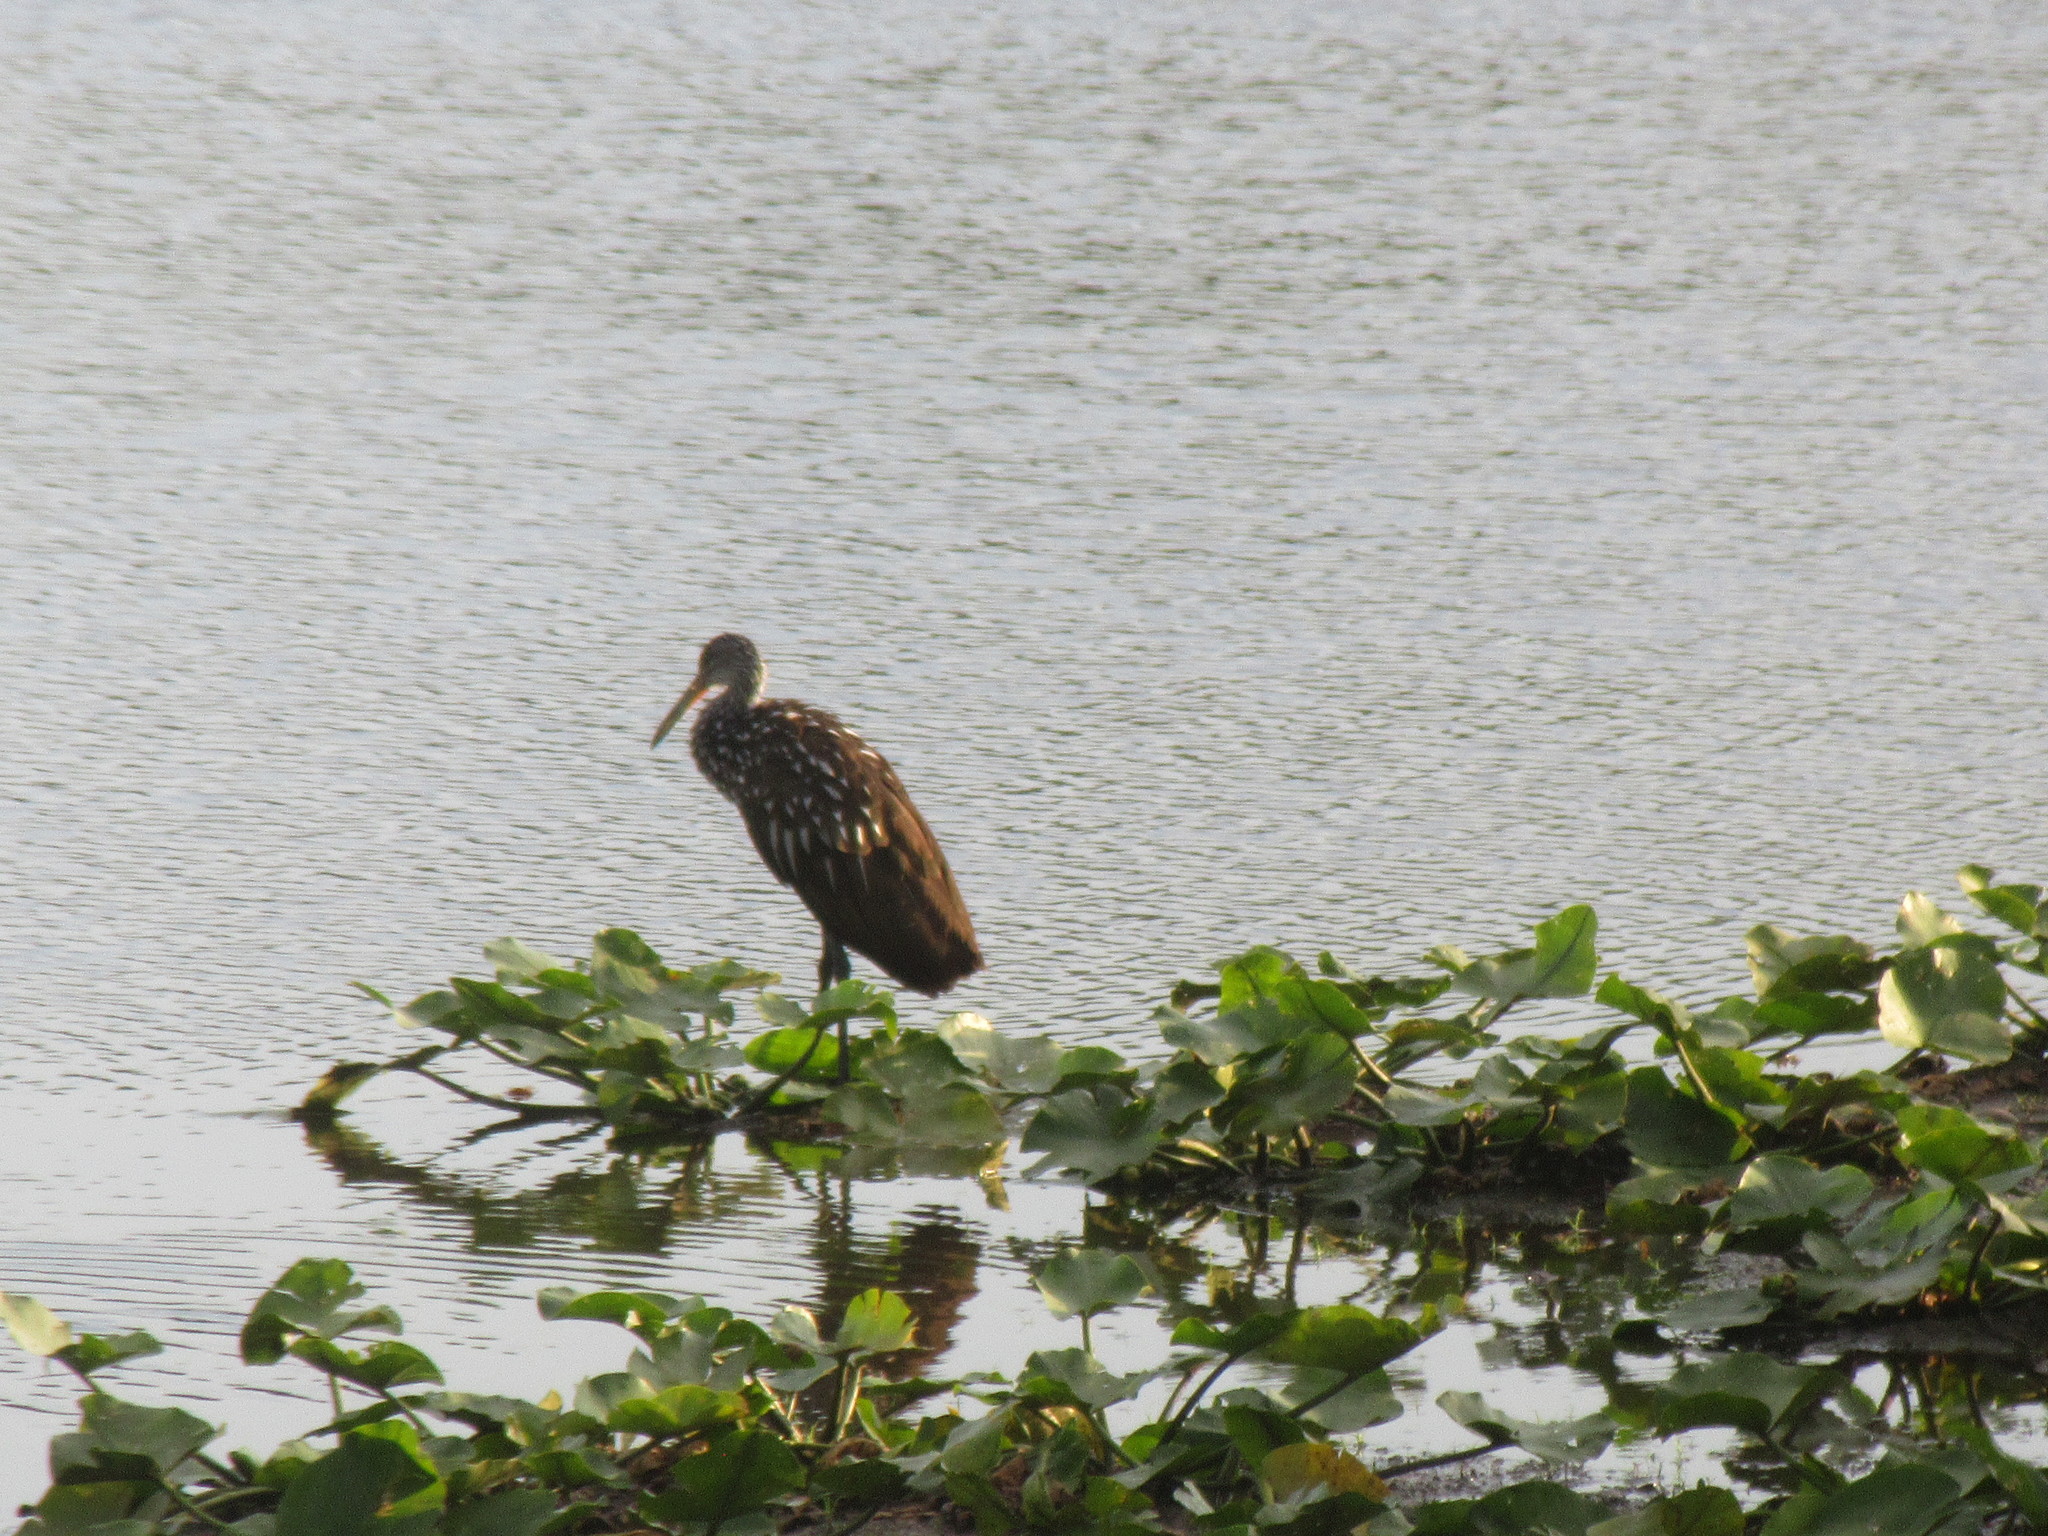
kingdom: Animalia
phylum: Chordata
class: Aves
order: Gruiformes
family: Aramidae
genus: Aramus
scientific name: Aramus guarauna
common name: Limpkin
